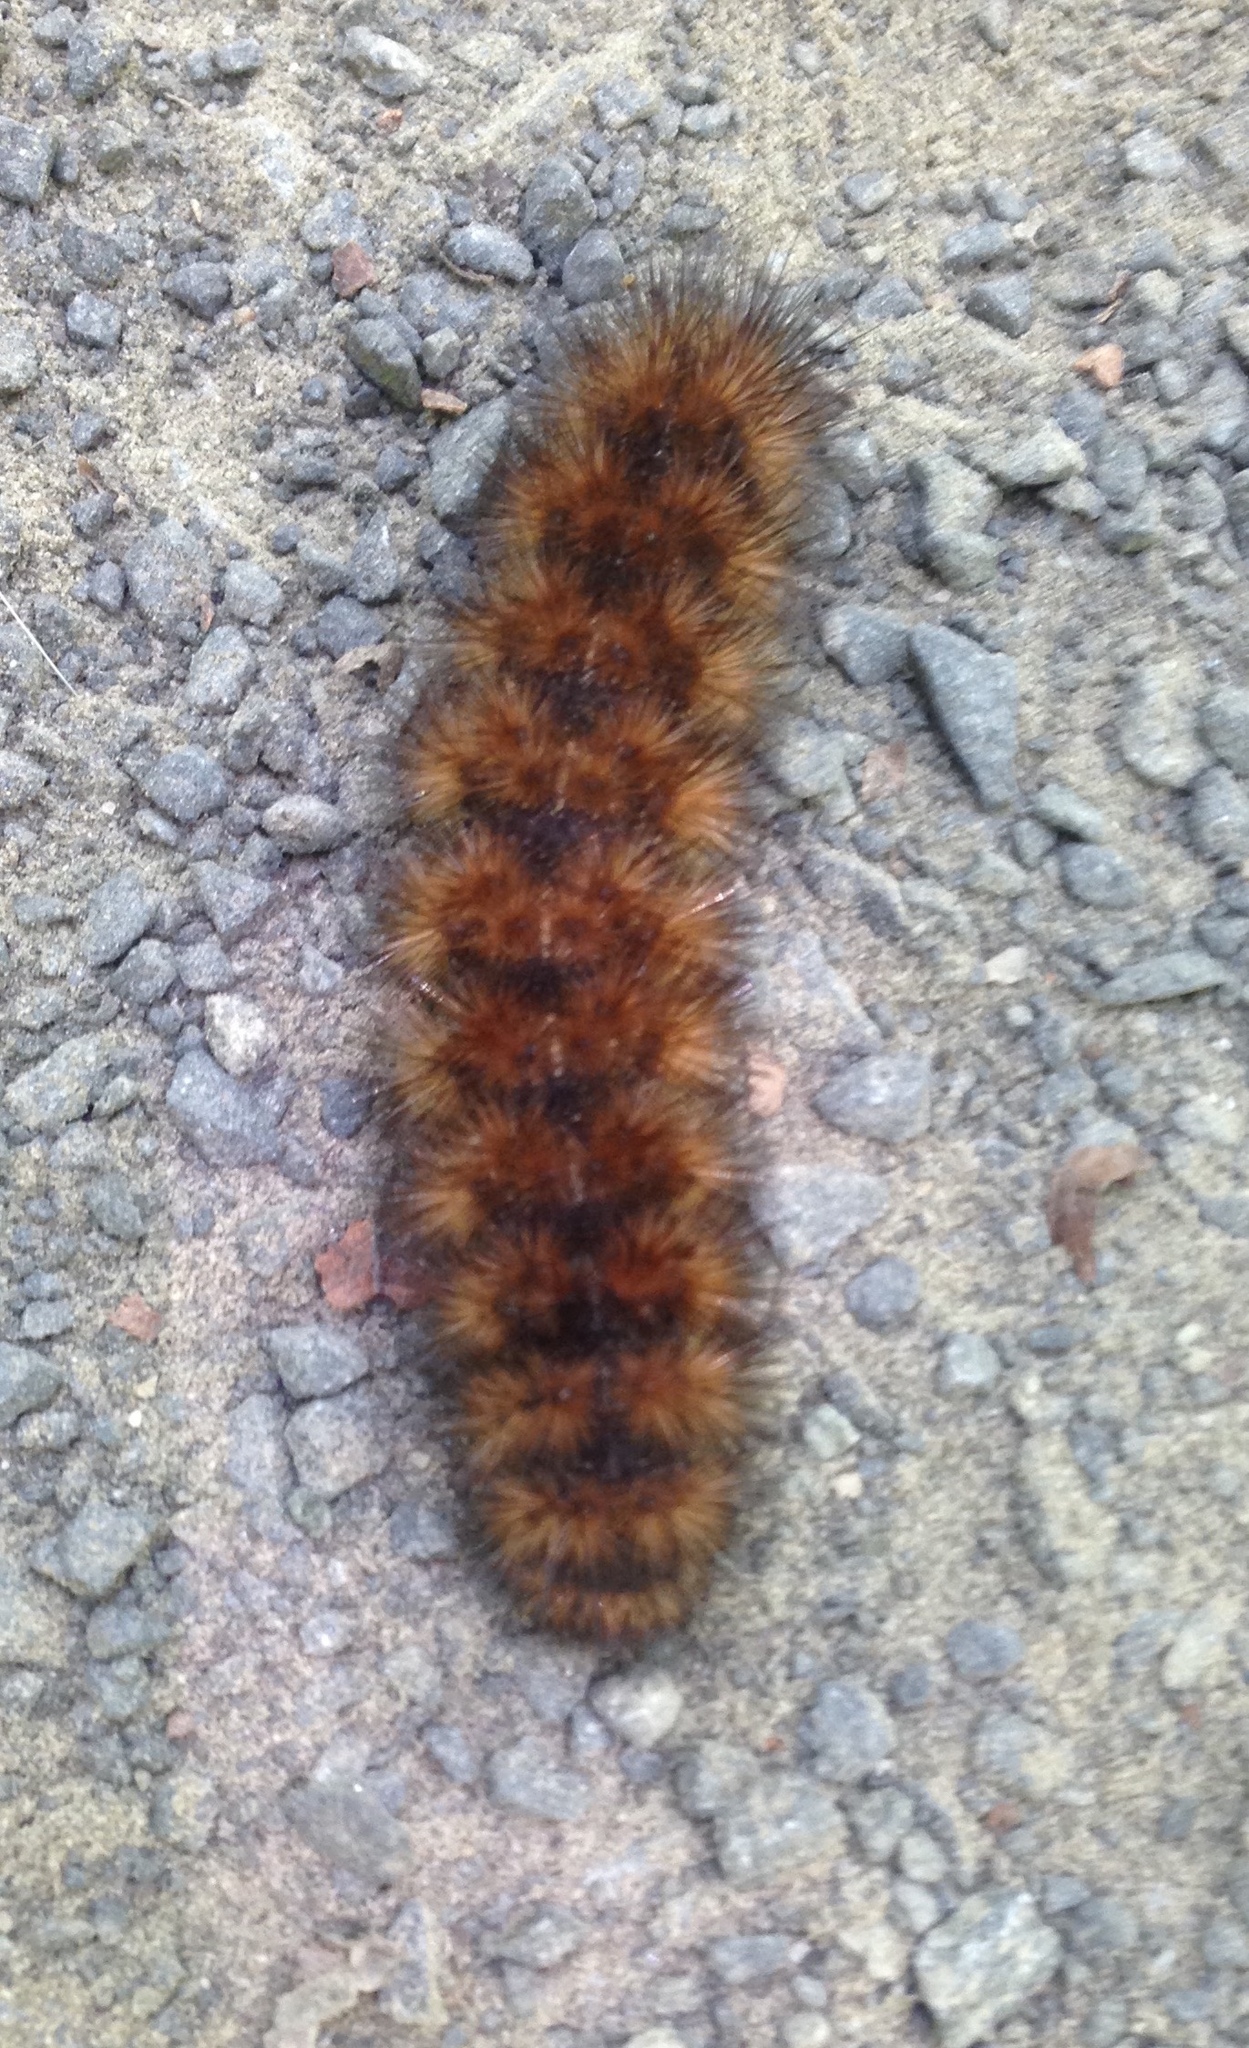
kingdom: Animalia
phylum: Arthropoda
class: Insecta
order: Lepidoptera
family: Erebidae
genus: Pyrrharctia
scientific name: Pyrrharctia isabella
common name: Isabella tiger moth
